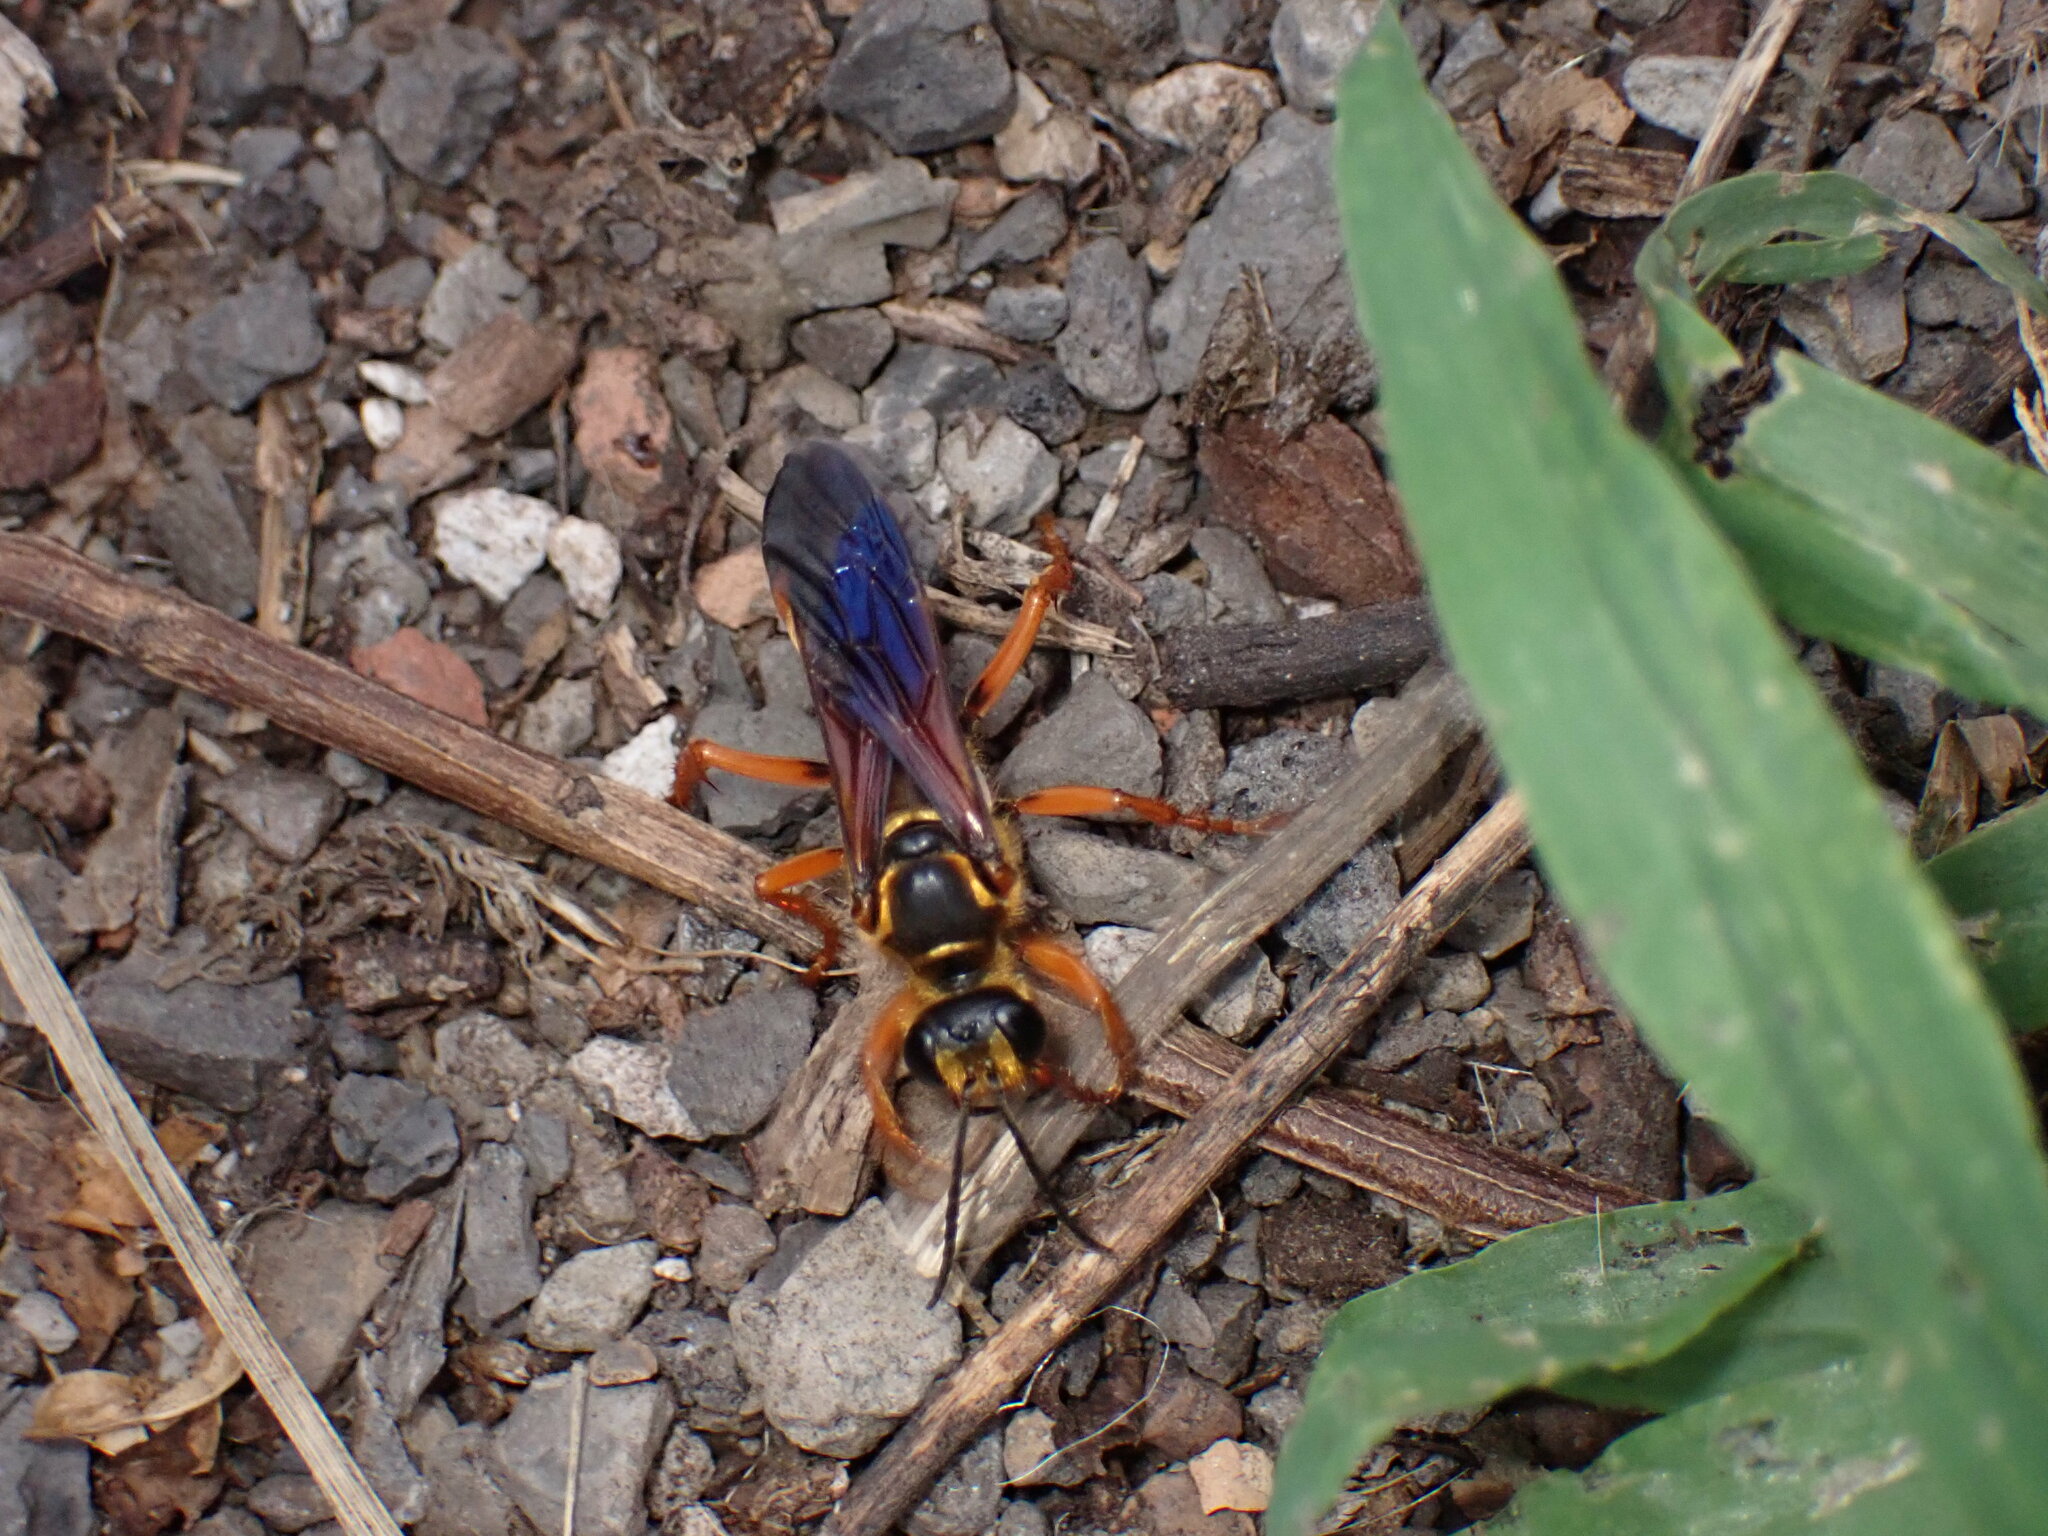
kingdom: Animalia
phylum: Arthropoda
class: Insecta
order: Hymenoptera
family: Sphecidae
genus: Sphex
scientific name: Sphex ichneumoneus
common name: Great golden digger wasp
